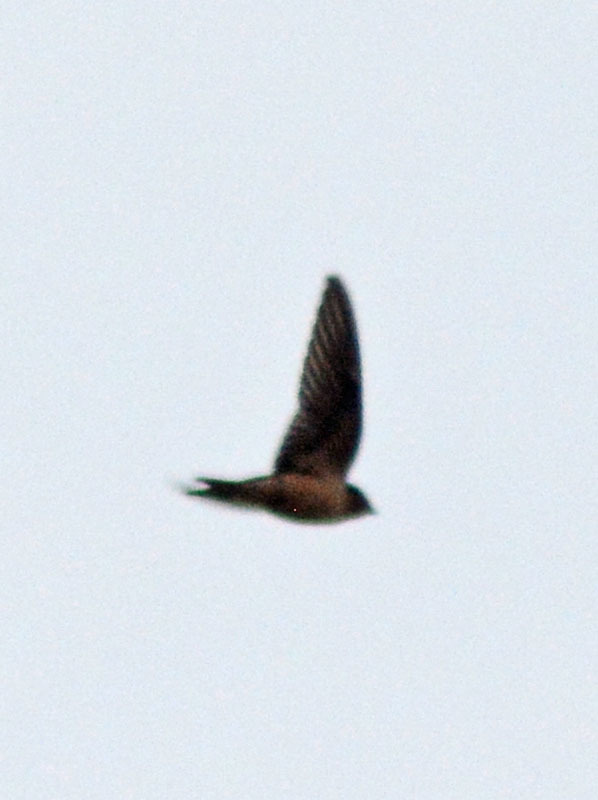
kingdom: Animalia
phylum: Chordata
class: Aves
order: Passeriformes
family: Hirundinidae
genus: Hirundo
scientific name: Hirundo rustica
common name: Barn swallow
